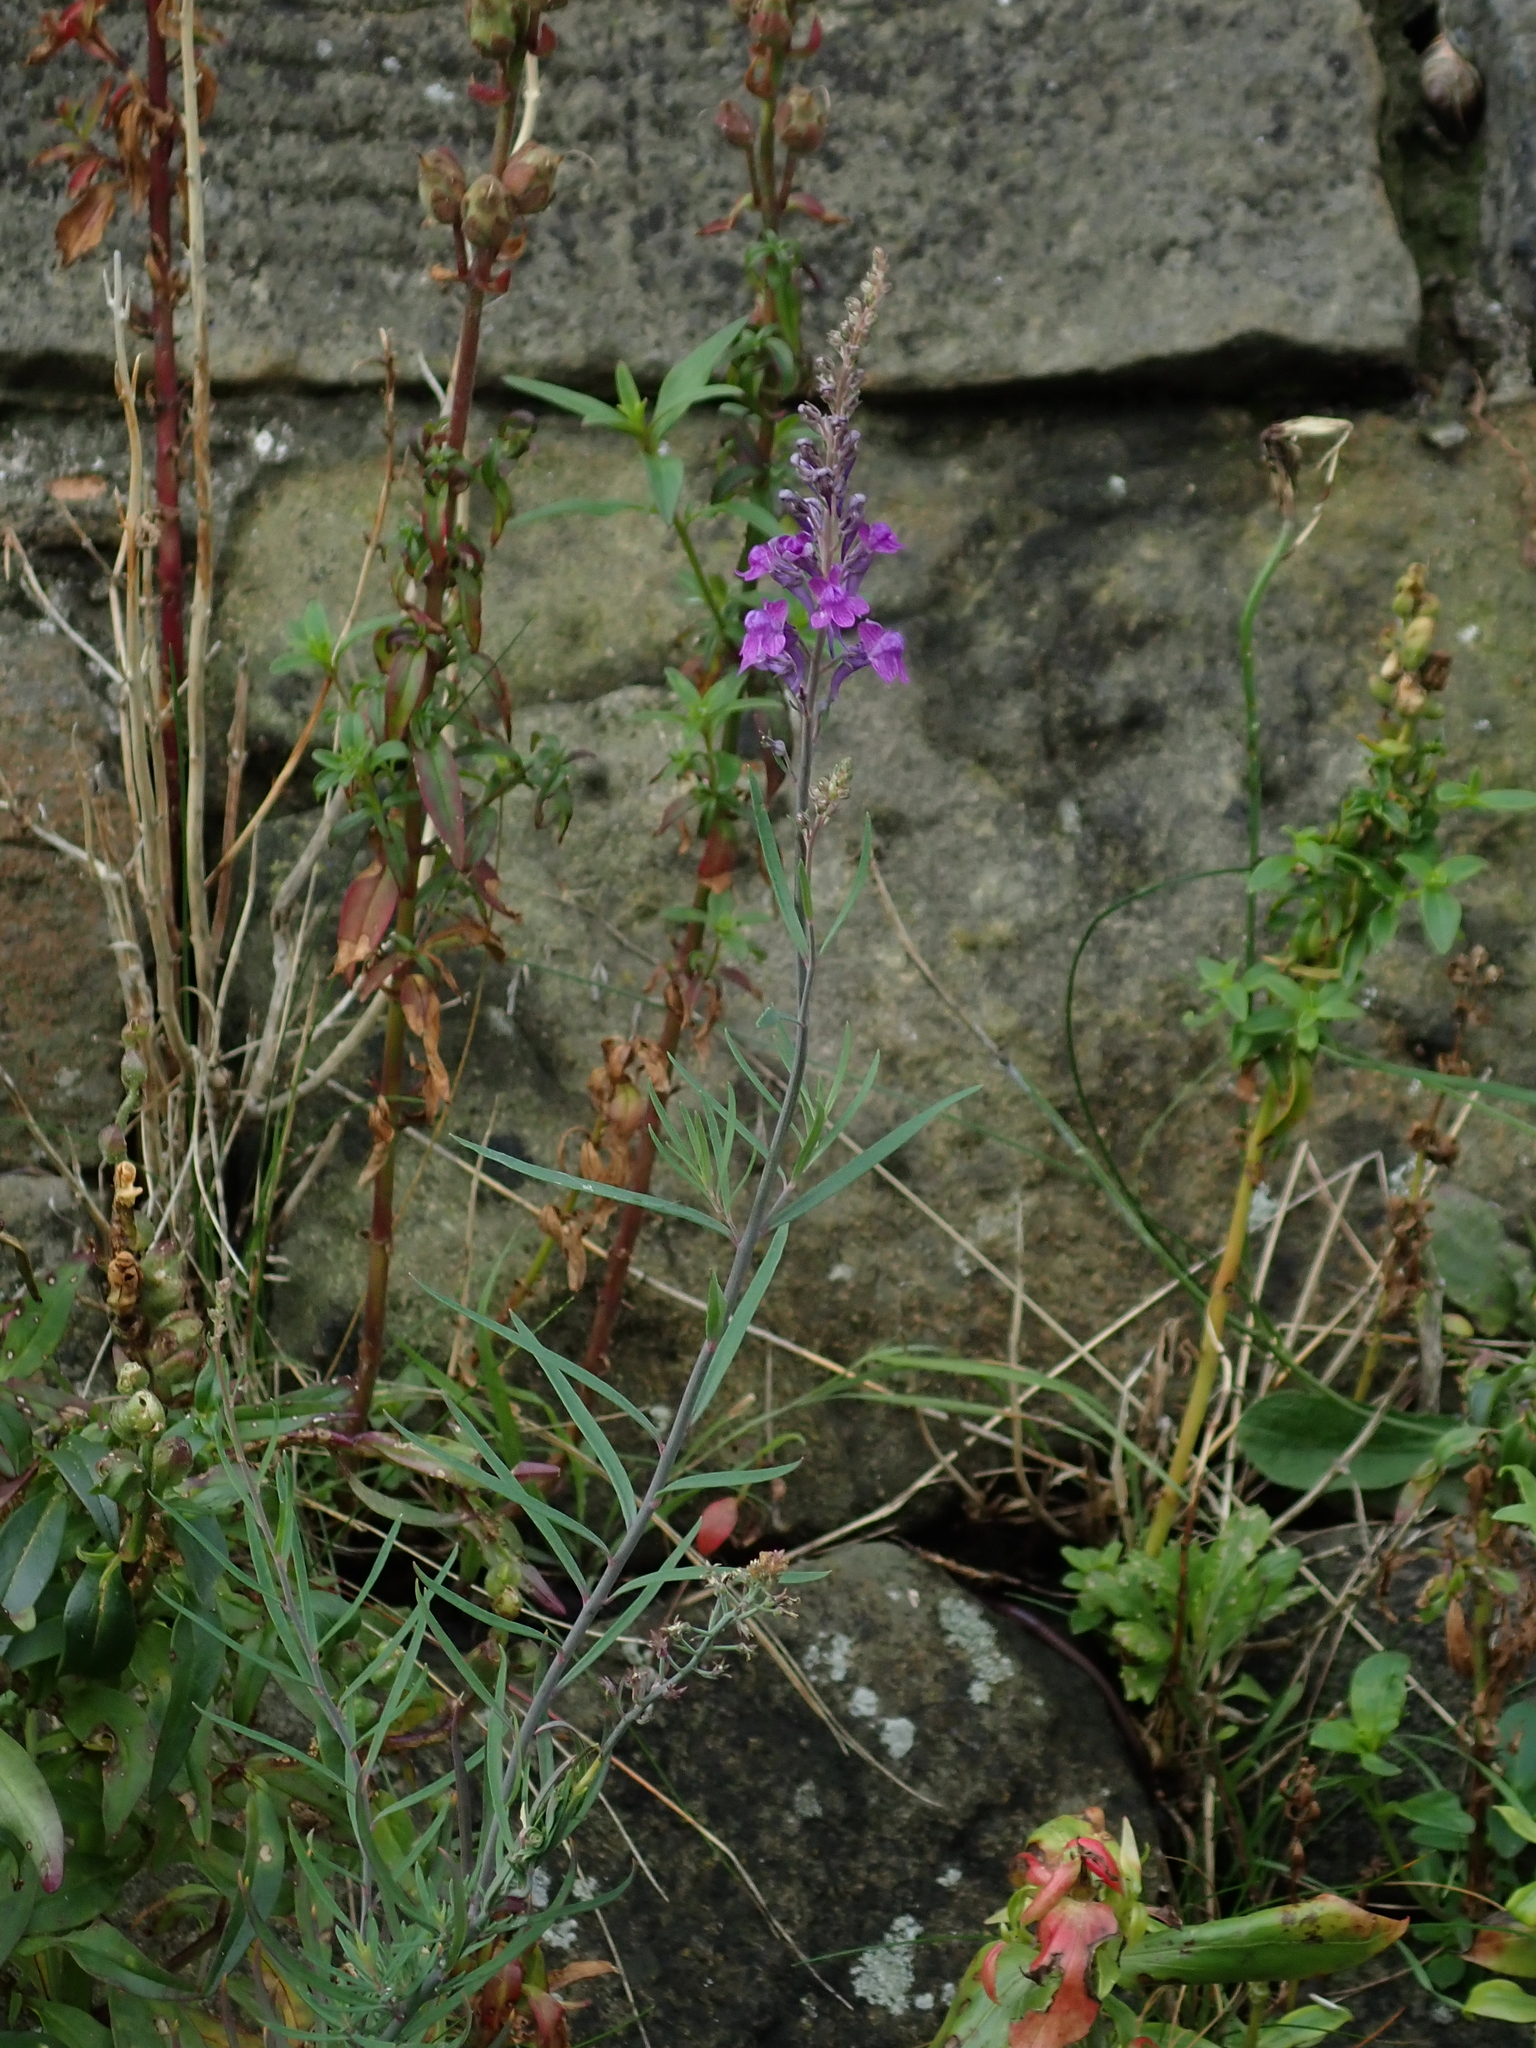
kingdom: Plantae
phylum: Tracheophyta
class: Magnoliopsida
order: Lamiales
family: Plantaginaceae
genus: Linaria
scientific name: Linaria purpurea
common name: Purple toadflax
